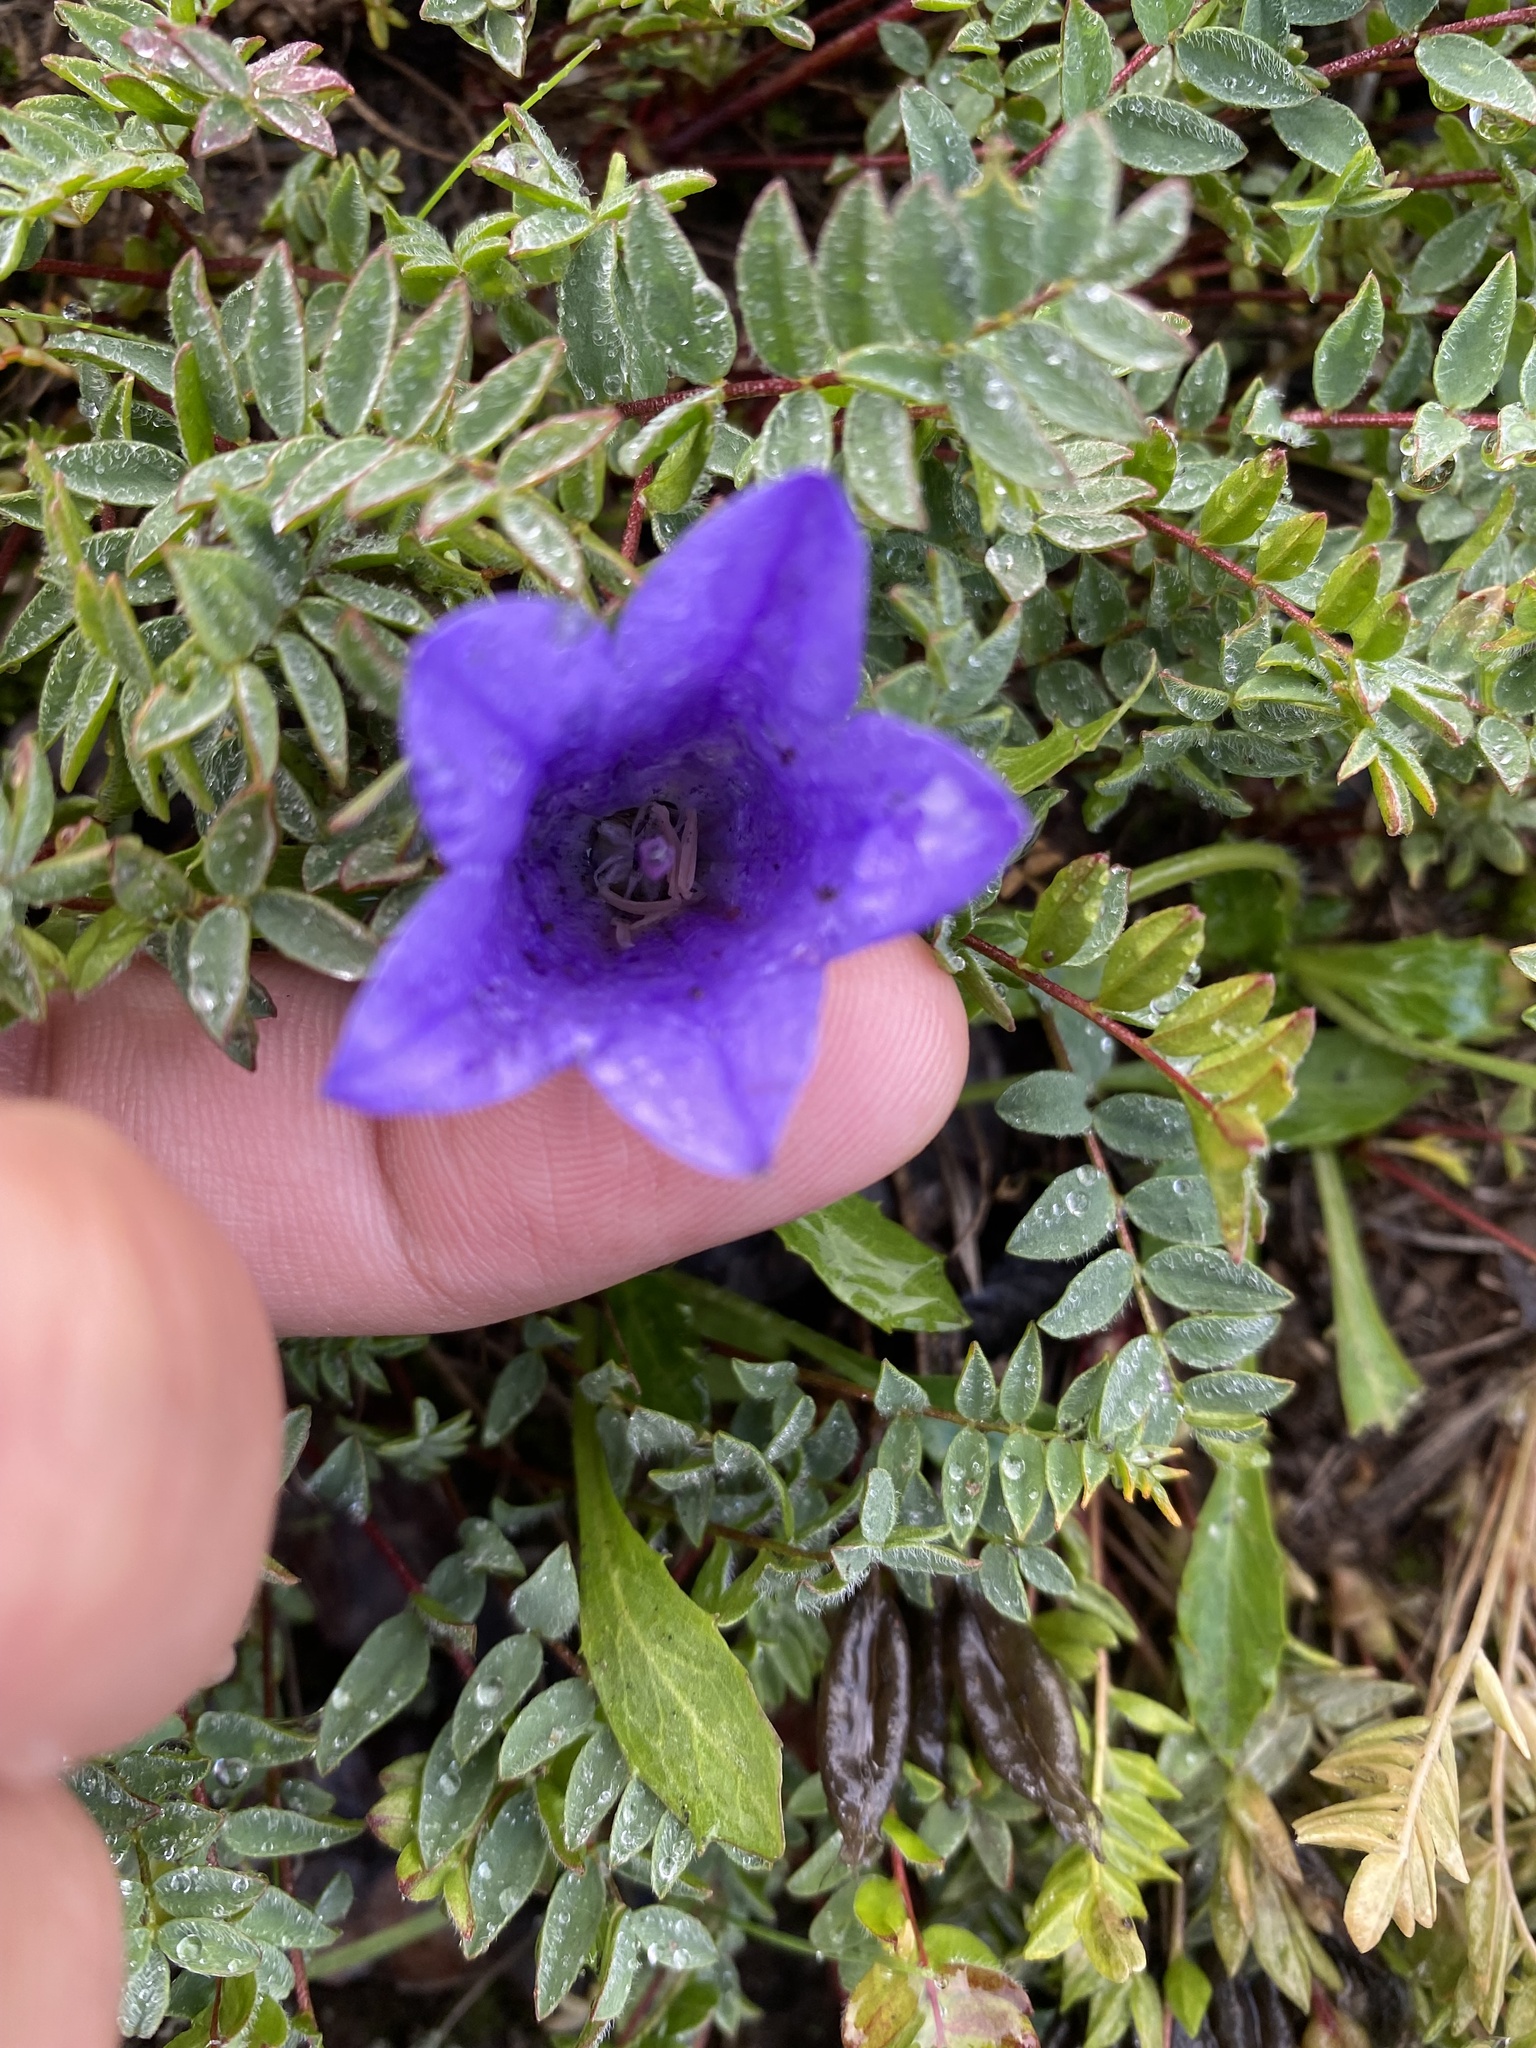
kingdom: Plantae
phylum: Tracheophyta
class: Magnoliopsida
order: Asterales
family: Campanulaceae
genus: Campanula
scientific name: Campanula lasiocarpa
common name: Mountain harebell
